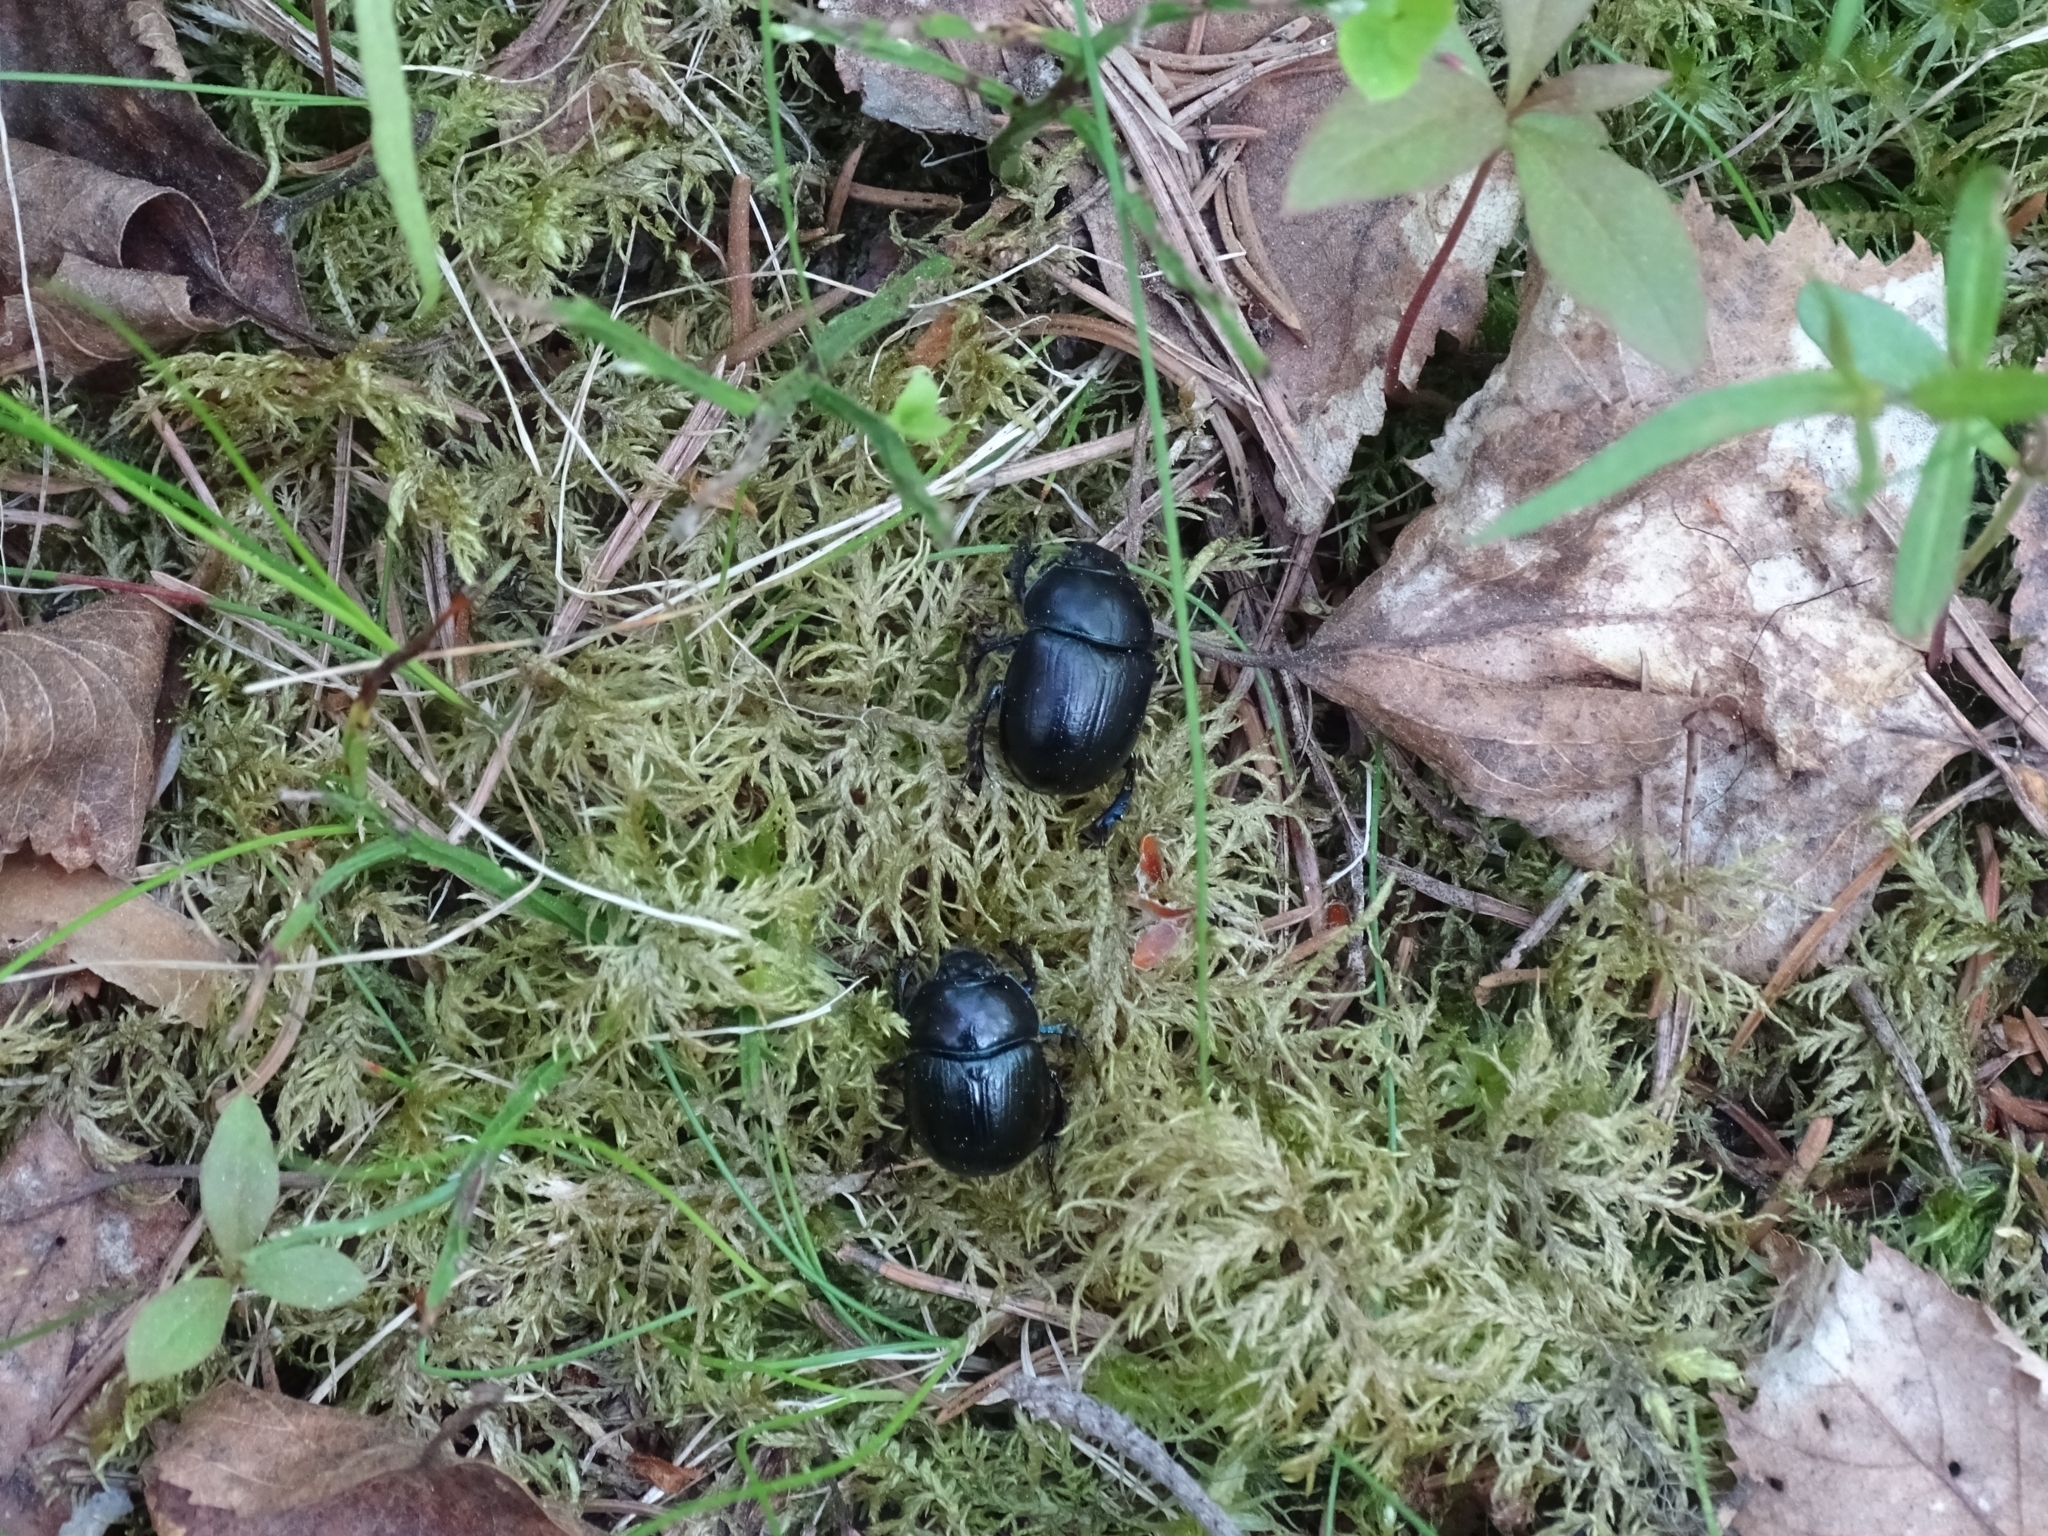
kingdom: Animalia
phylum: Arthropoda
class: Insecta
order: Coleoptera
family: Geotrupidae
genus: Anoplotrupes
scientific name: Anoplotrupes stercorosus
